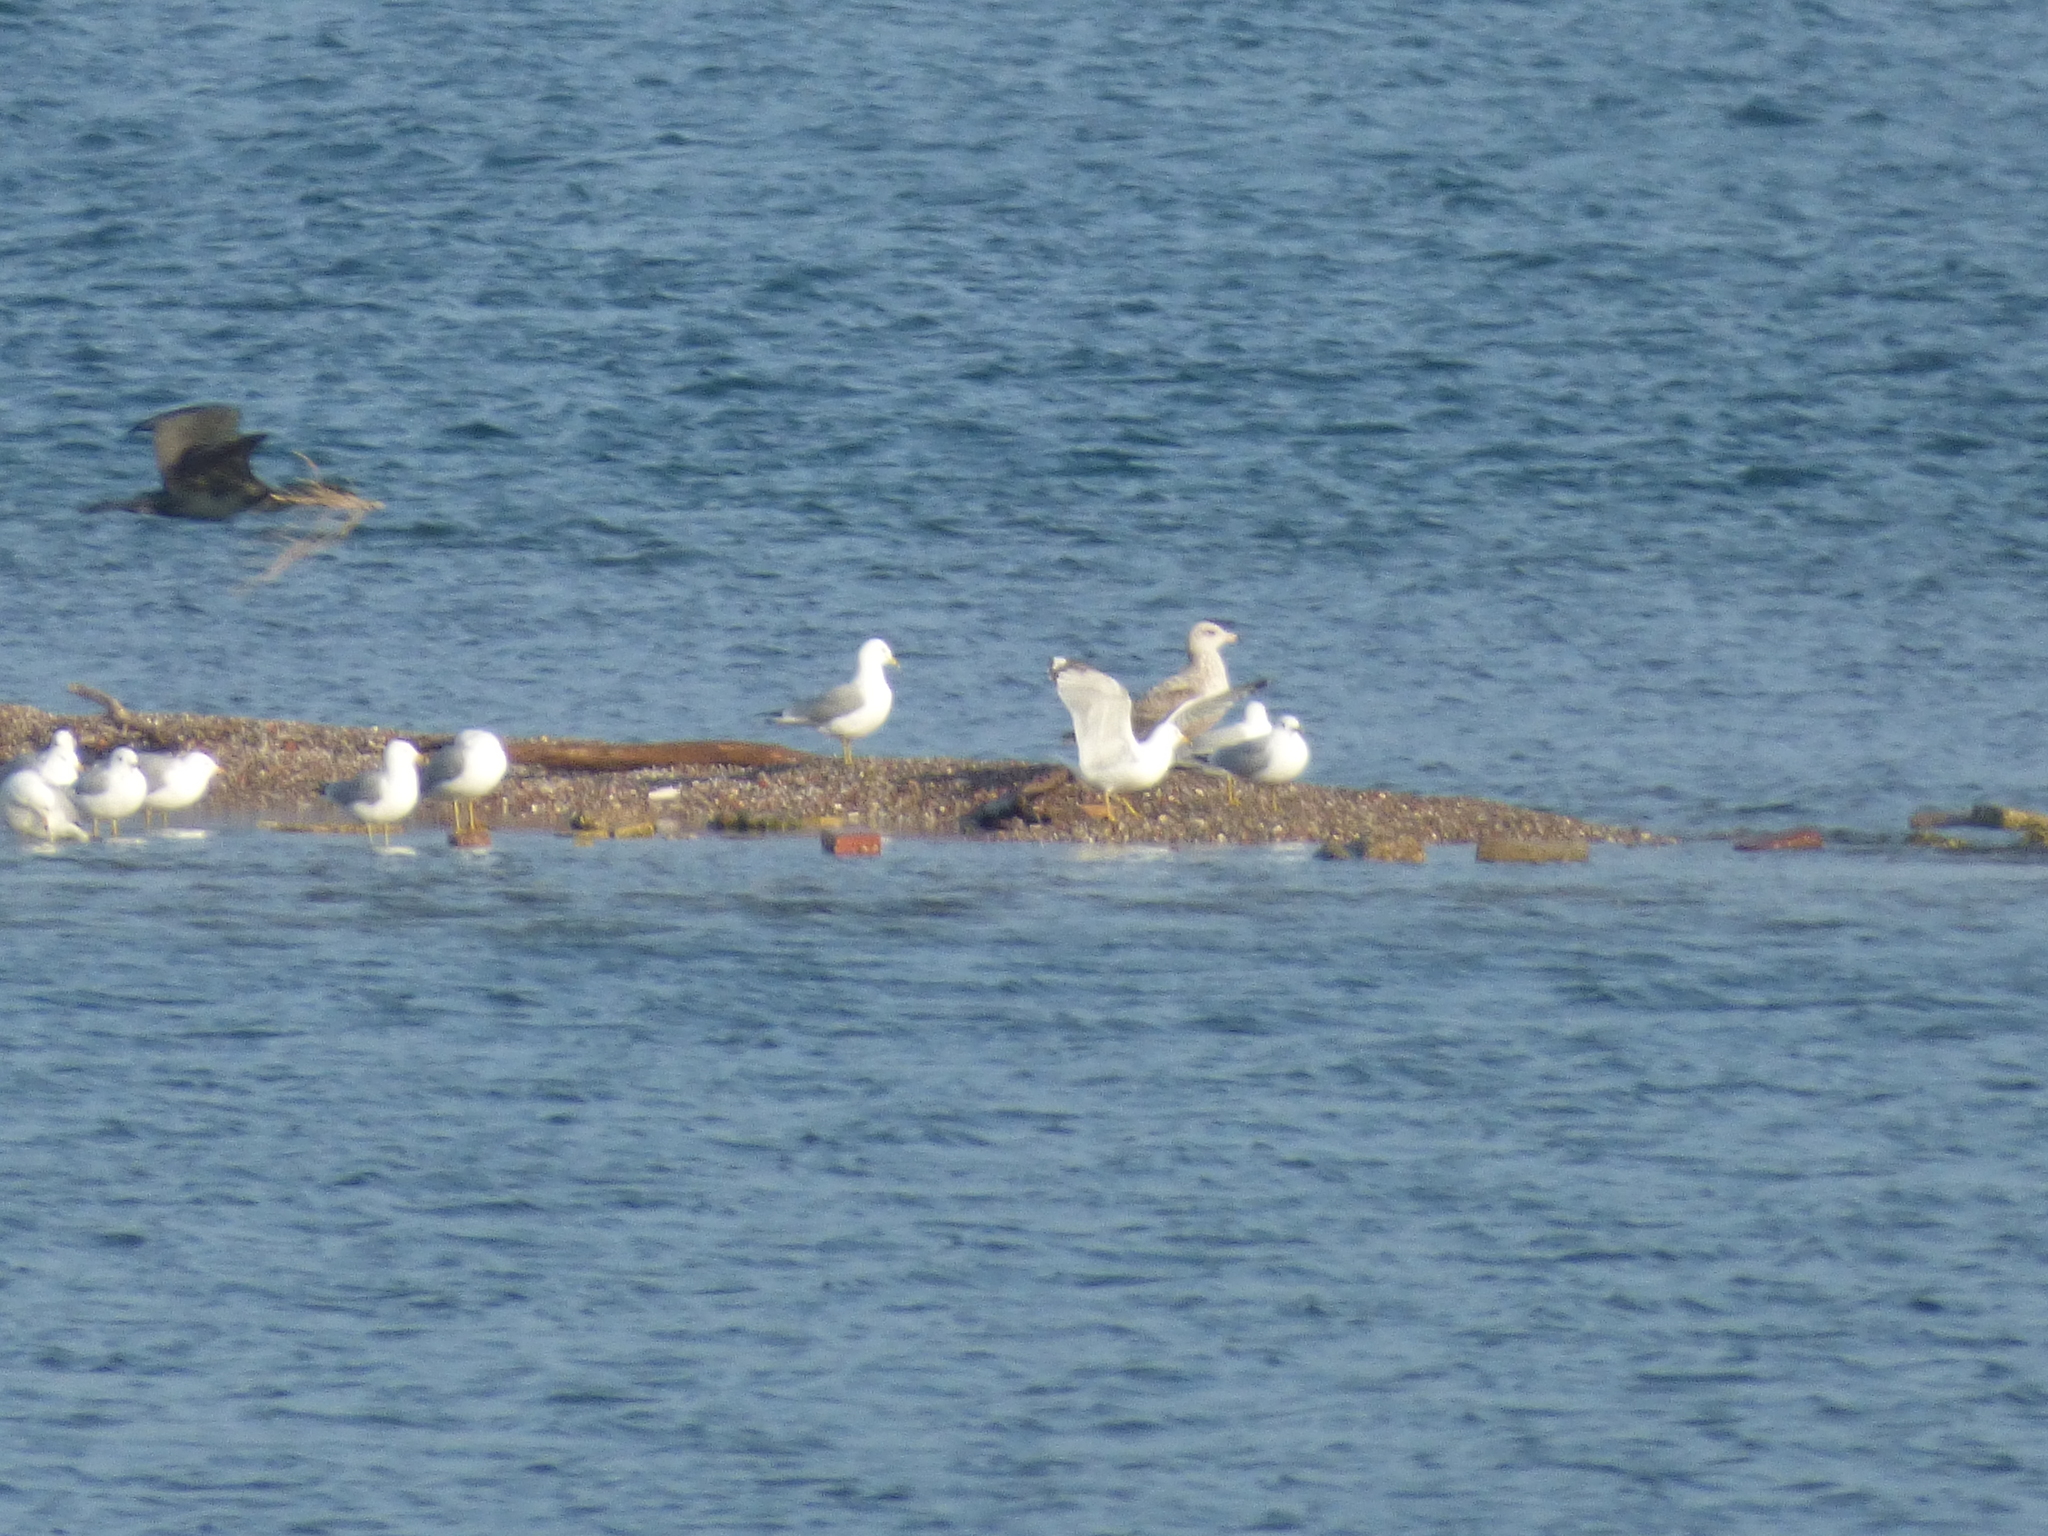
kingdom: Animalia
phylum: Chordata
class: Aves
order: Charadriiformes
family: Laridae
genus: Larus
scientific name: Larus argentatus
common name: Herring gull
